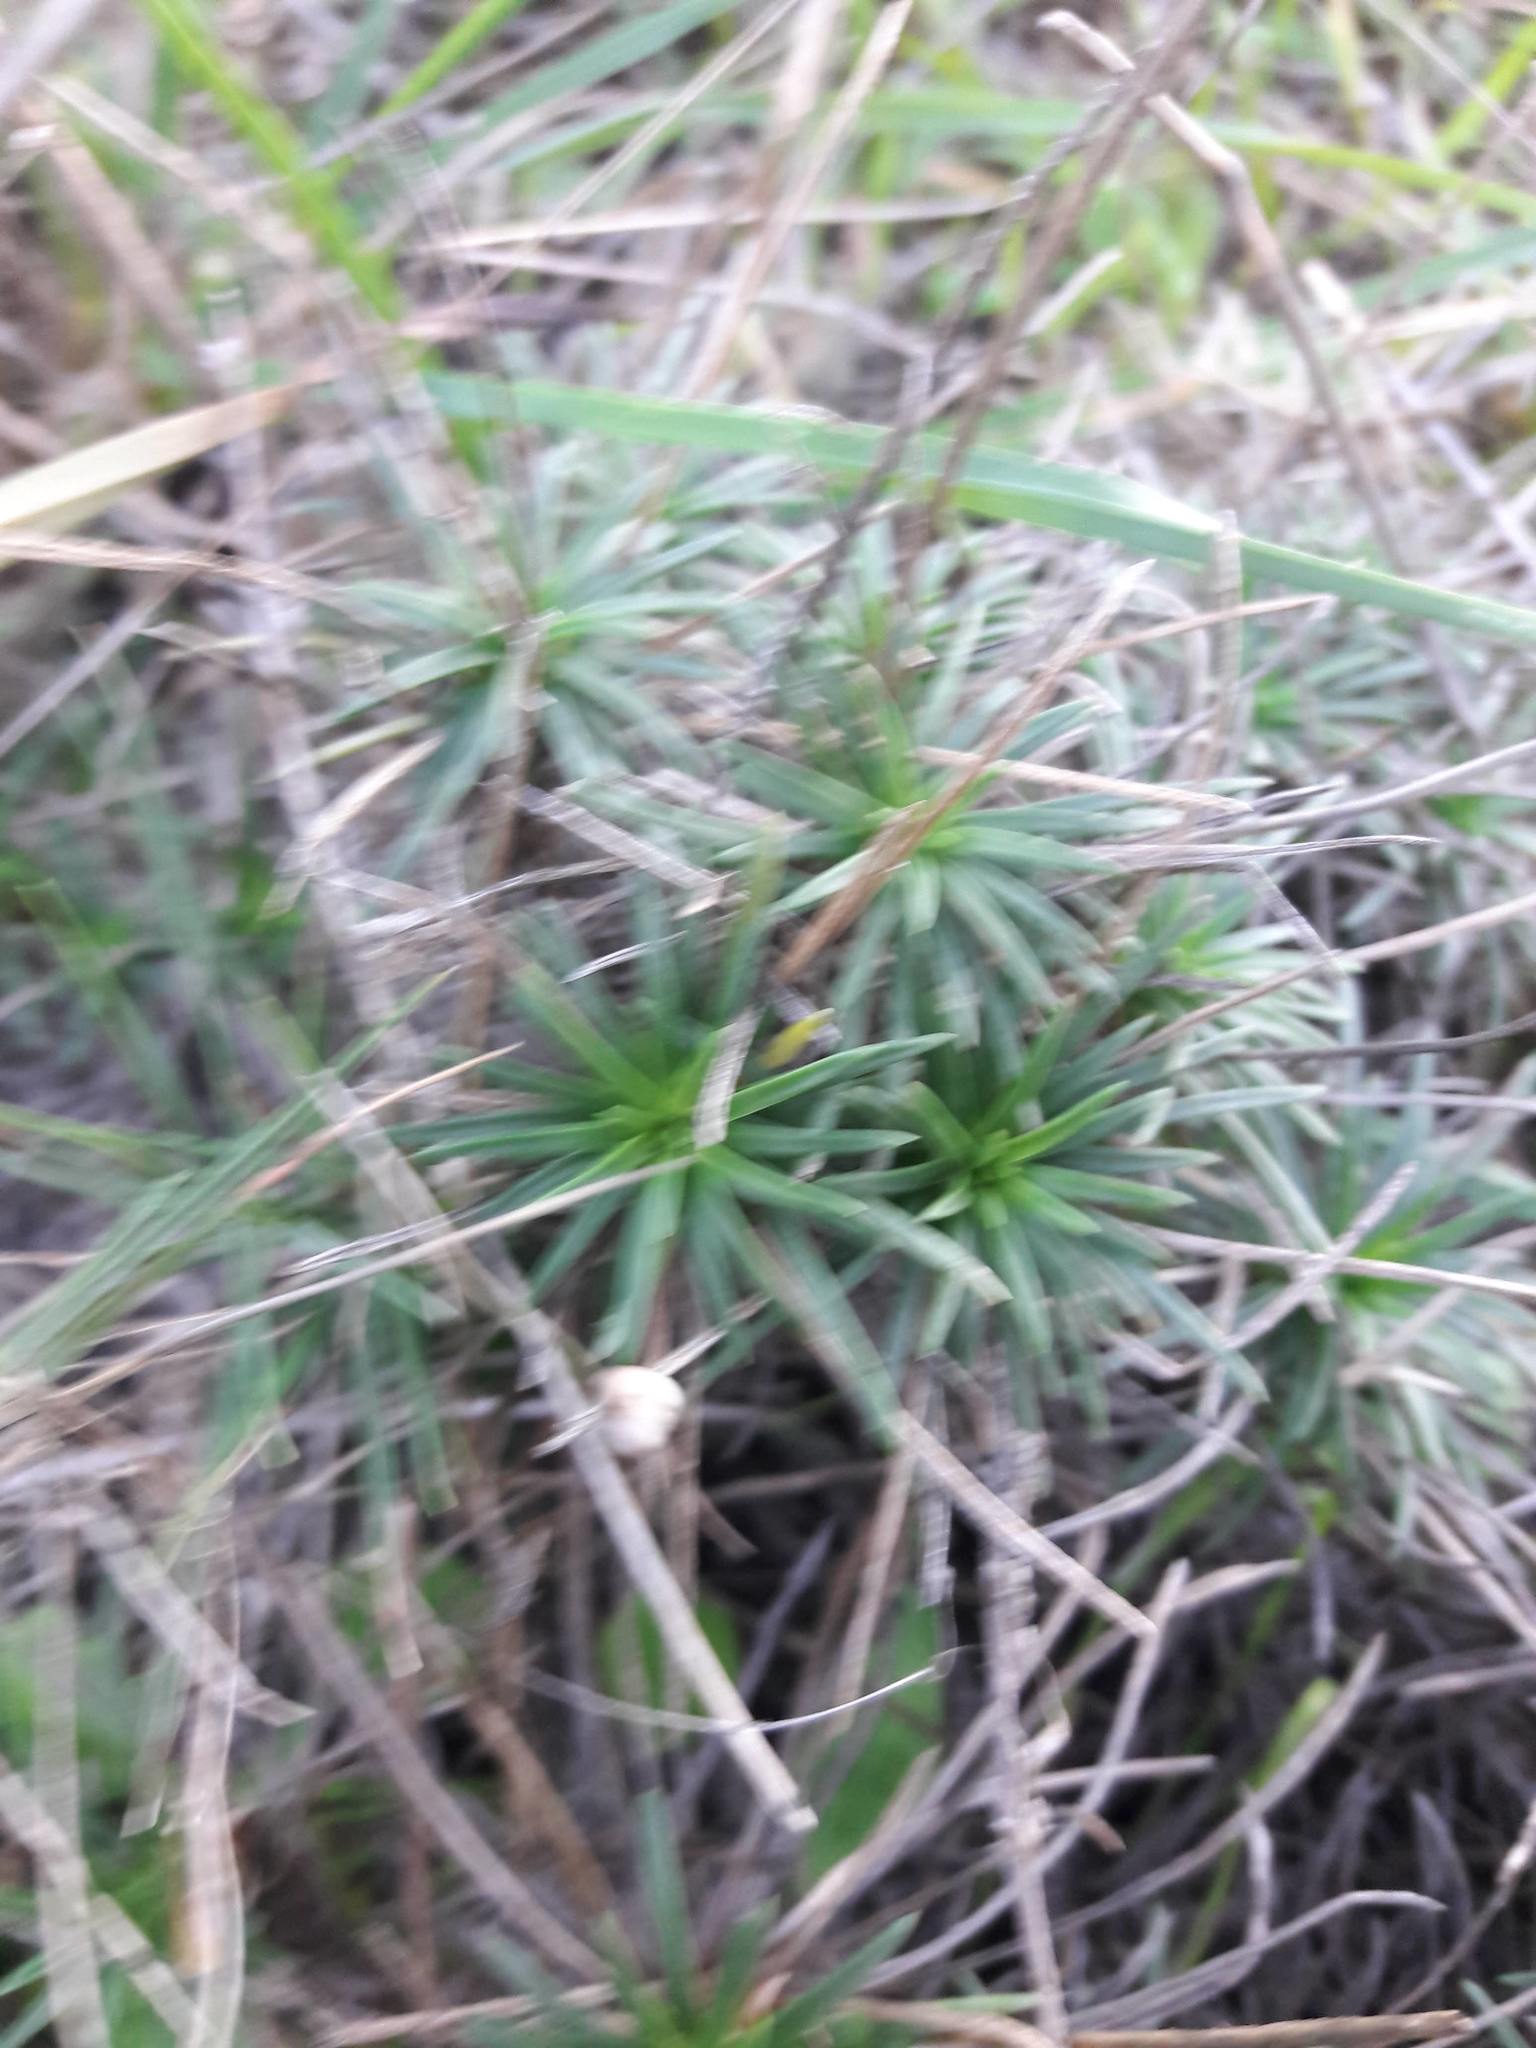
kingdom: Plantae
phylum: Tracheophyta
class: Magnoliopsida
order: Lamiales
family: Plantaginaceae
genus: Plantago
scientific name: Plantago subulata
